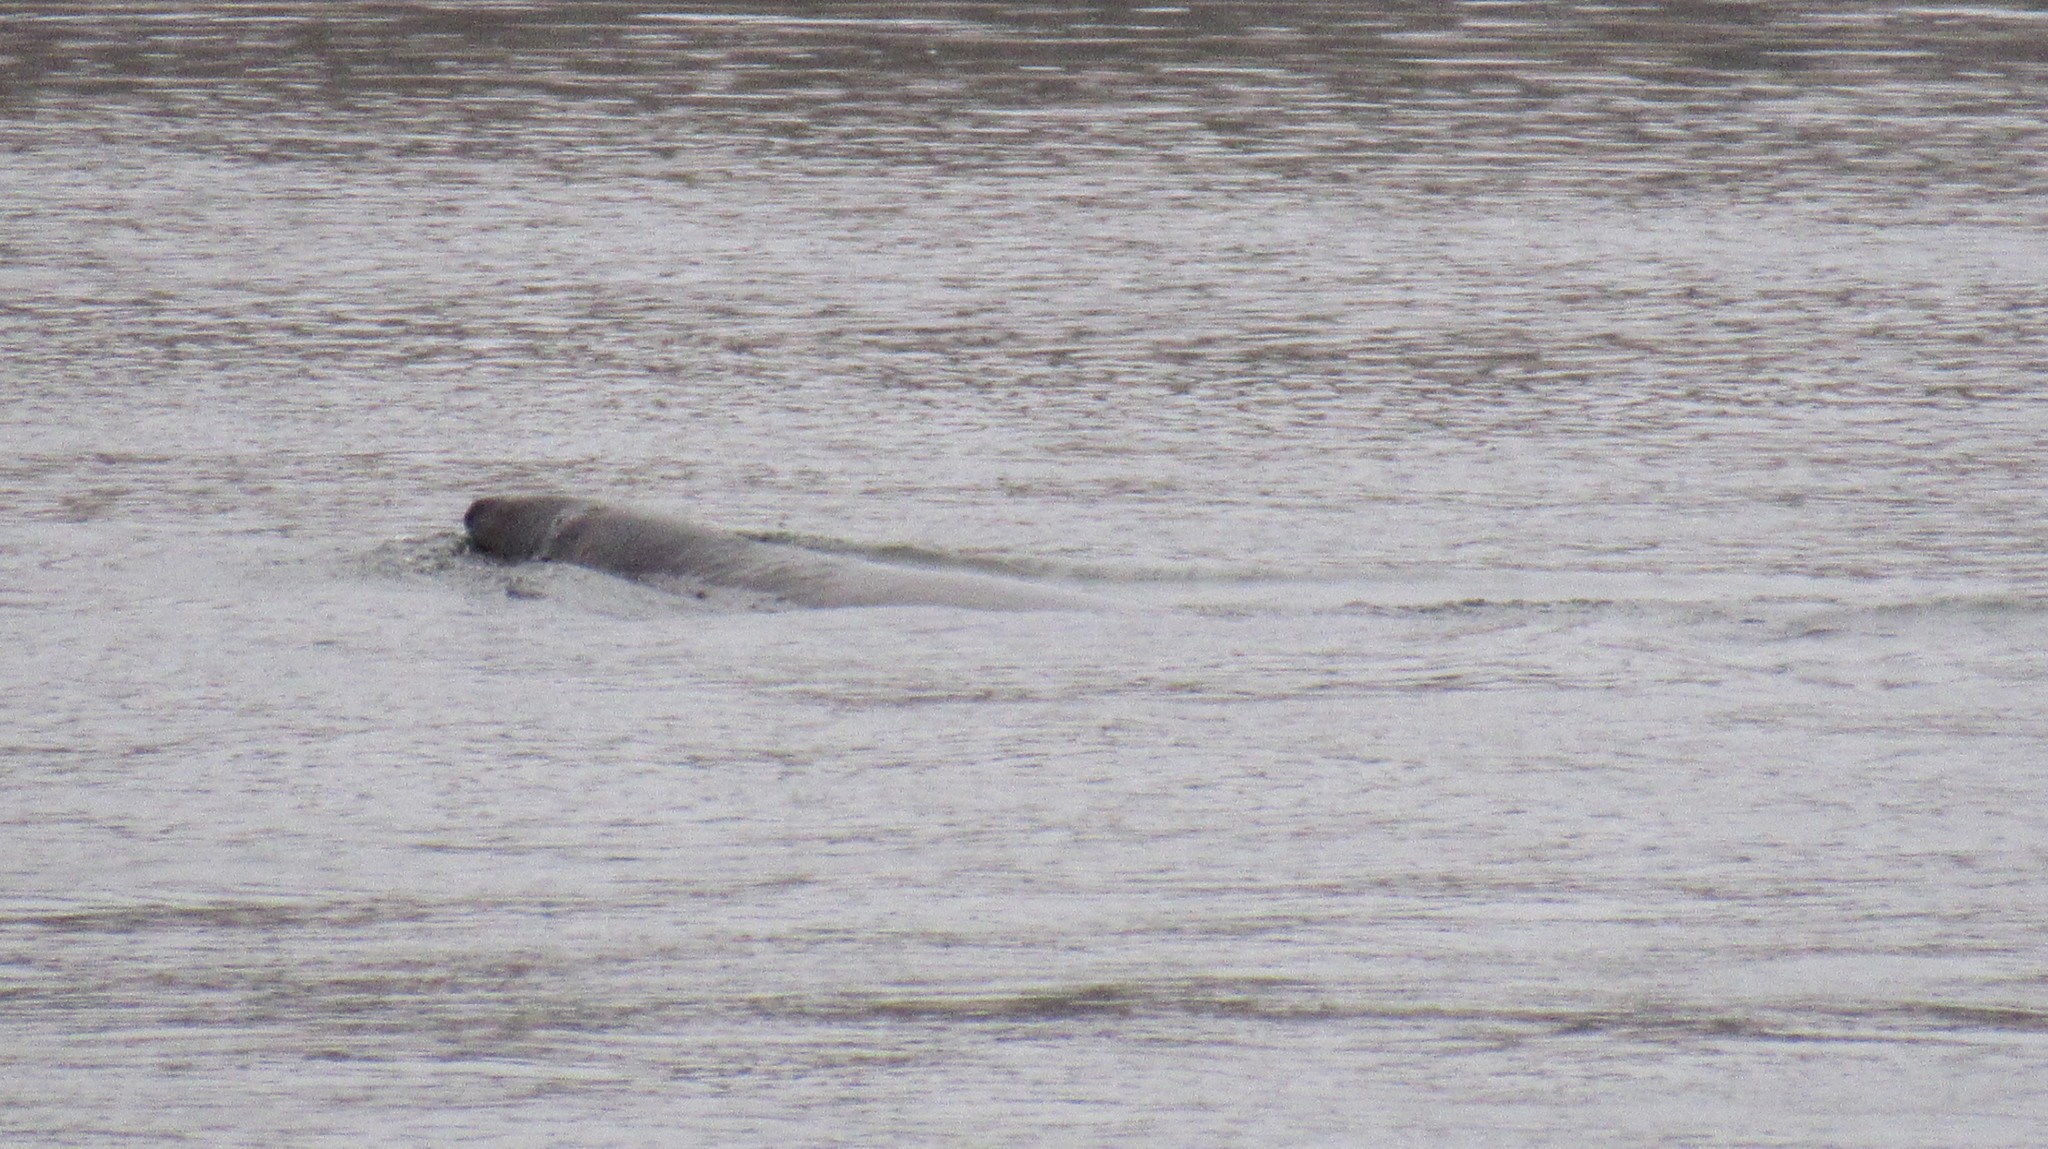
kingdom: Animalia
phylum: Chordata
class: Mammalia
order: Carnivora
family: Phocidae
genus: Halichoerus
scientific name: Halichoerus grypus
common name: Grey seal
